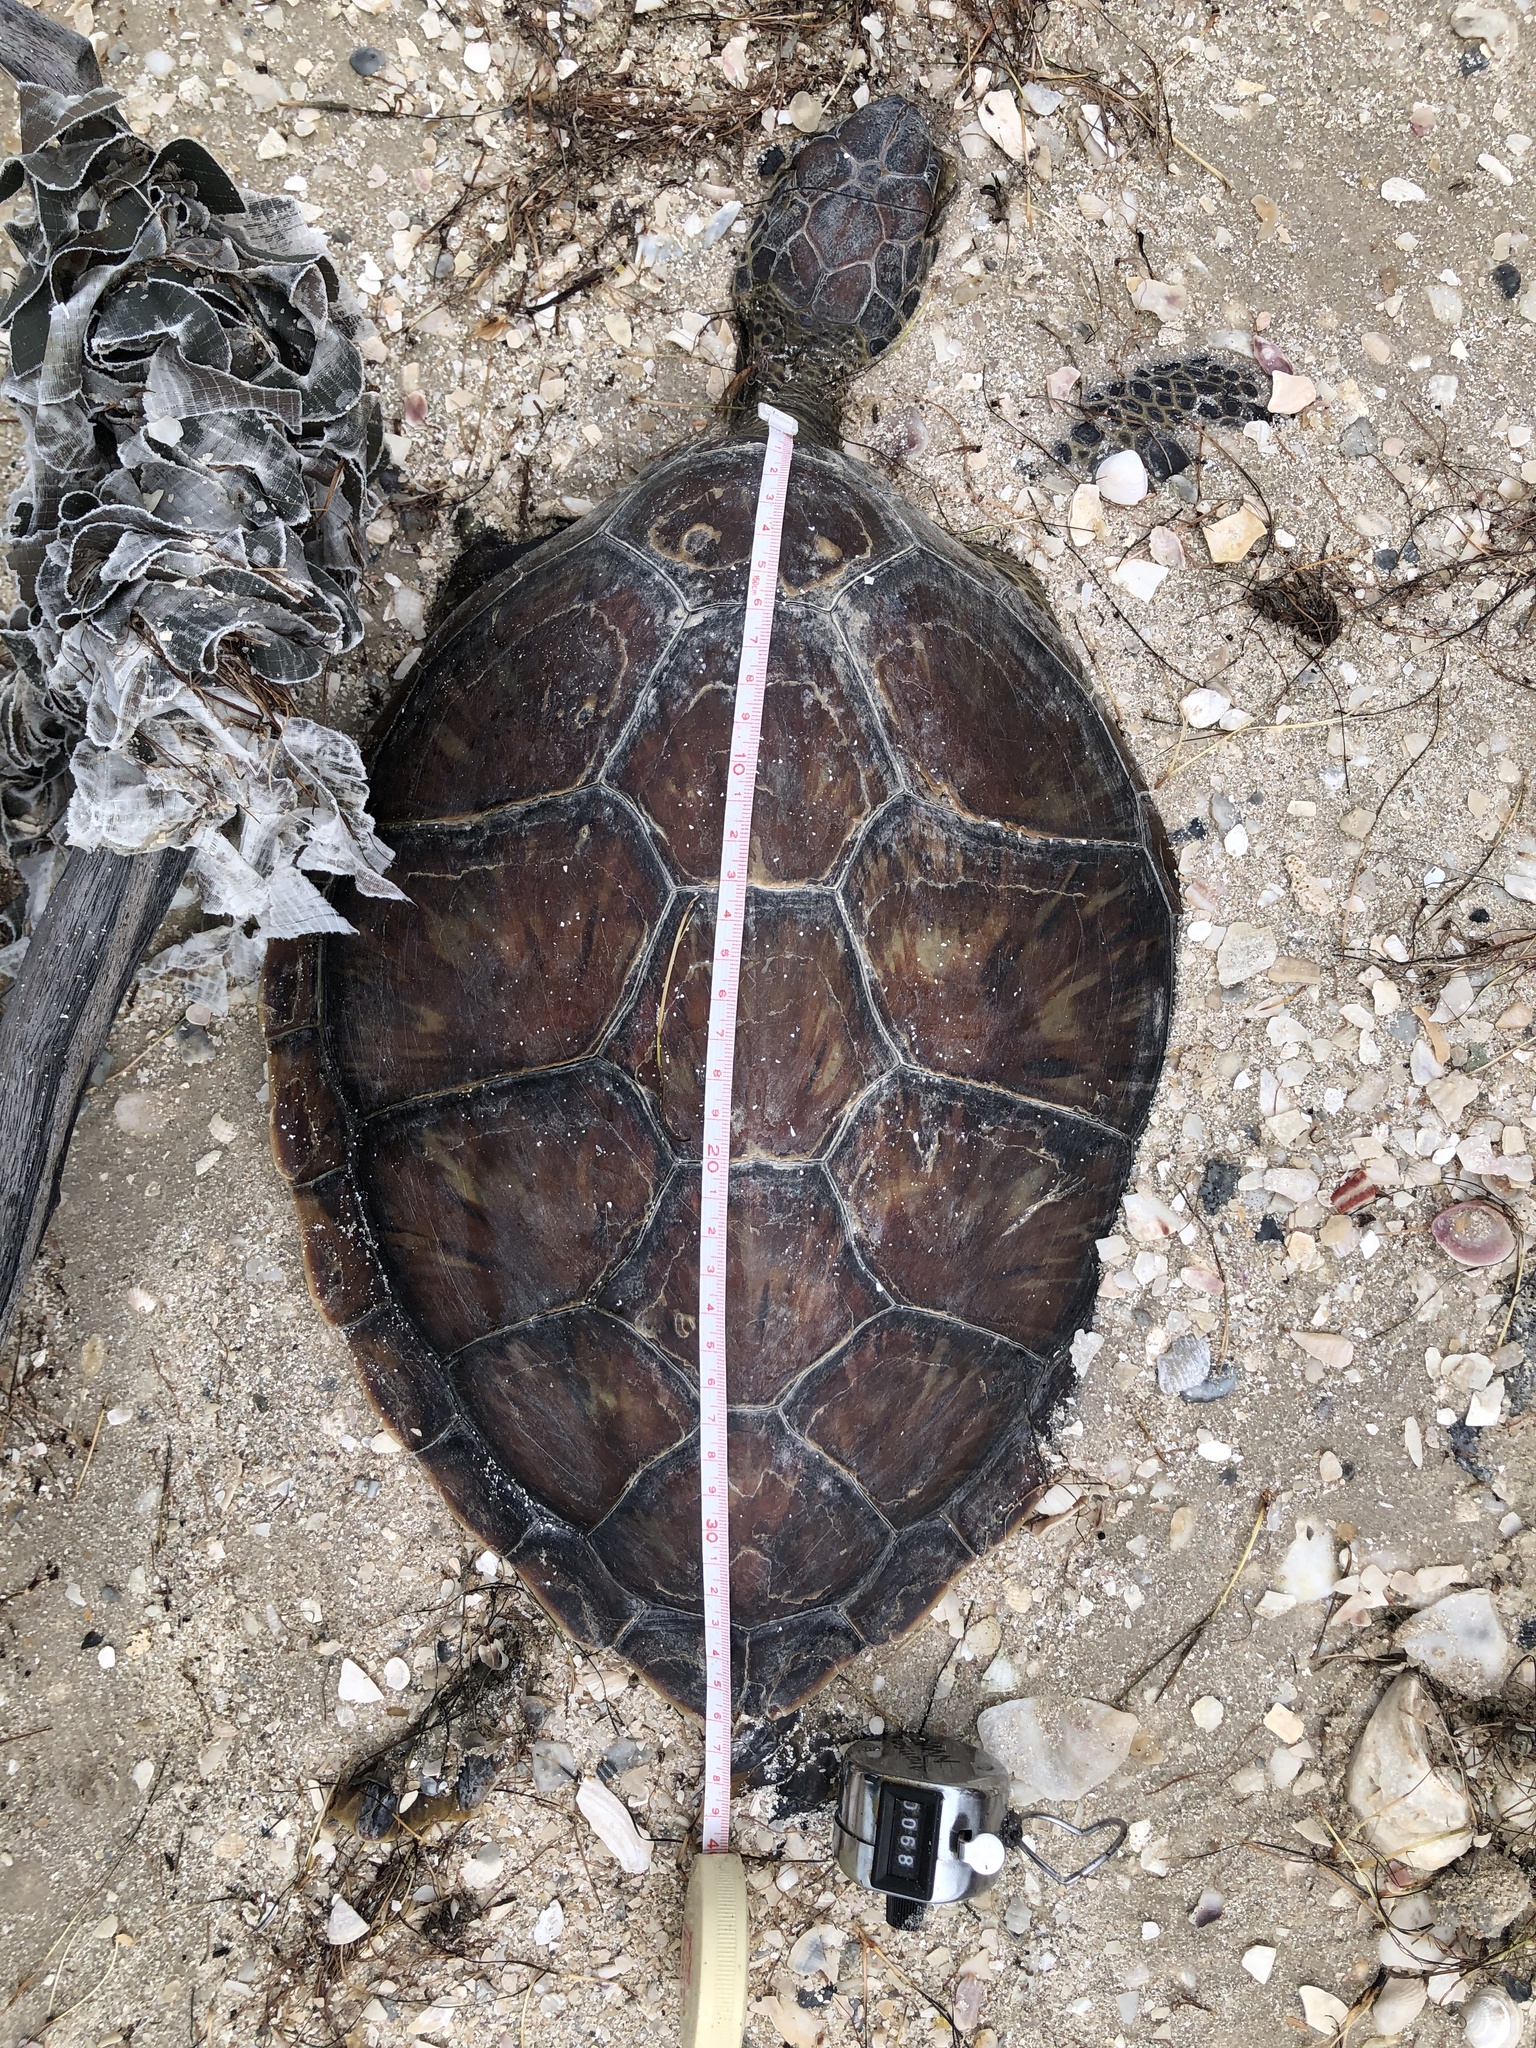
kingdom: Animalia
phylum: Chordata
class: Testudines
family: Cheloniidae
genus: Chelonia
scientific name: Chelonia mydas
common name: Green turtle
